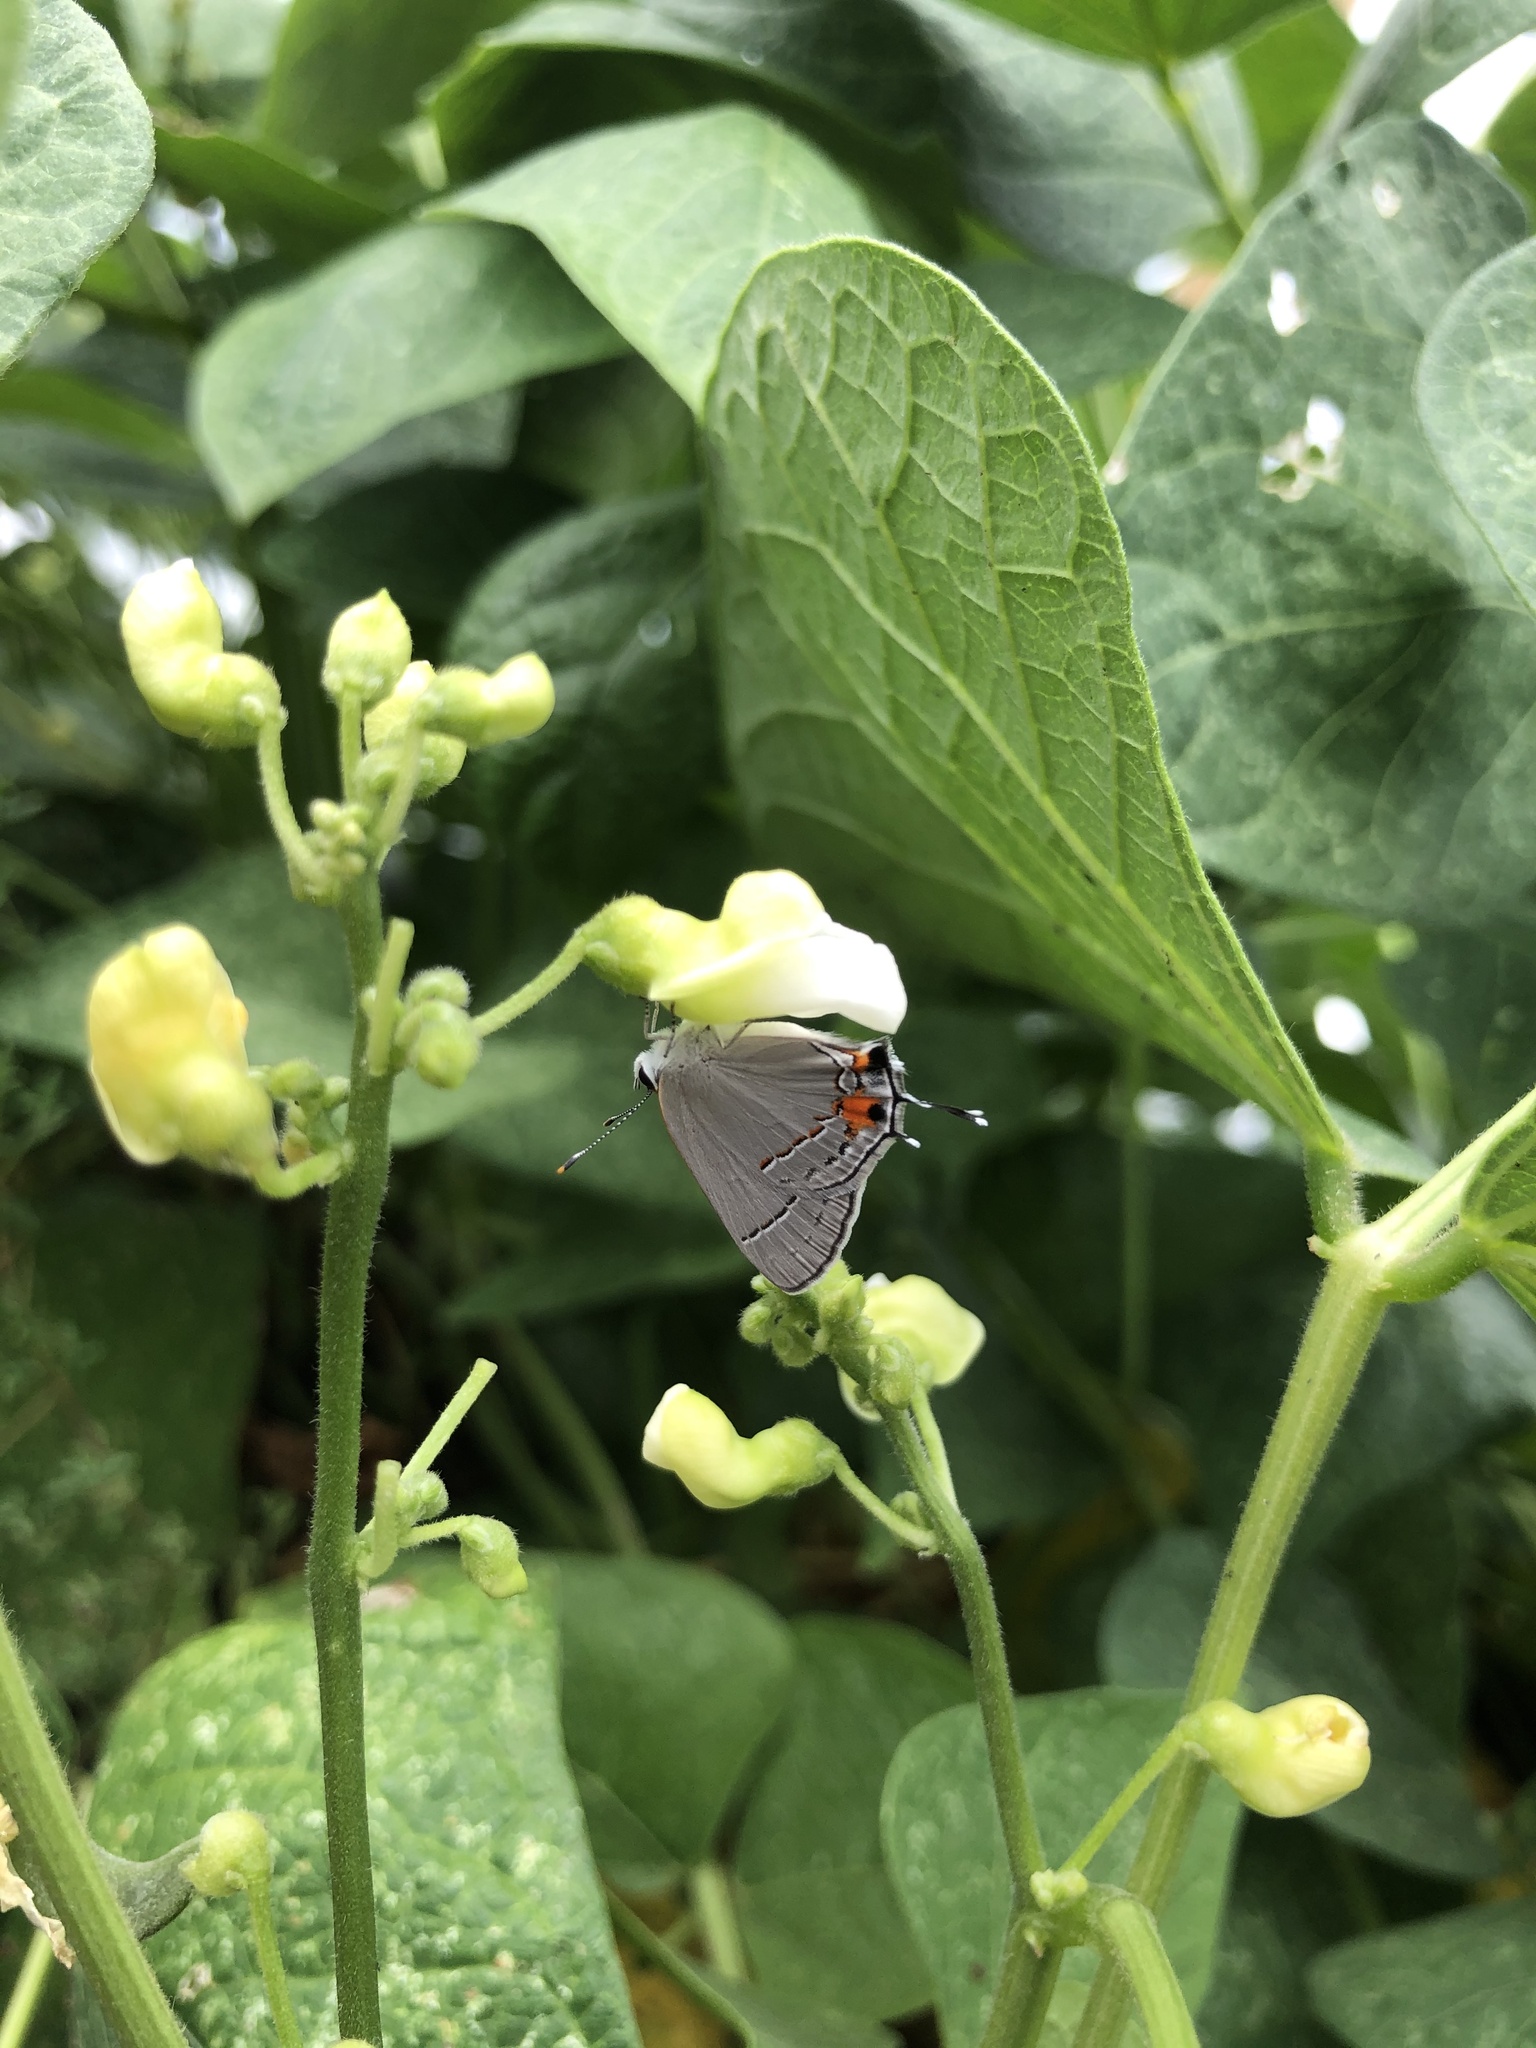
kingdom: Animalia
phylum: Arthropoda
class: Insecta
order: Lepidoptera
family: Lycaenidae
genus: Strymon
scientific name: Strymon melinus
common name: Gray hairstreak
